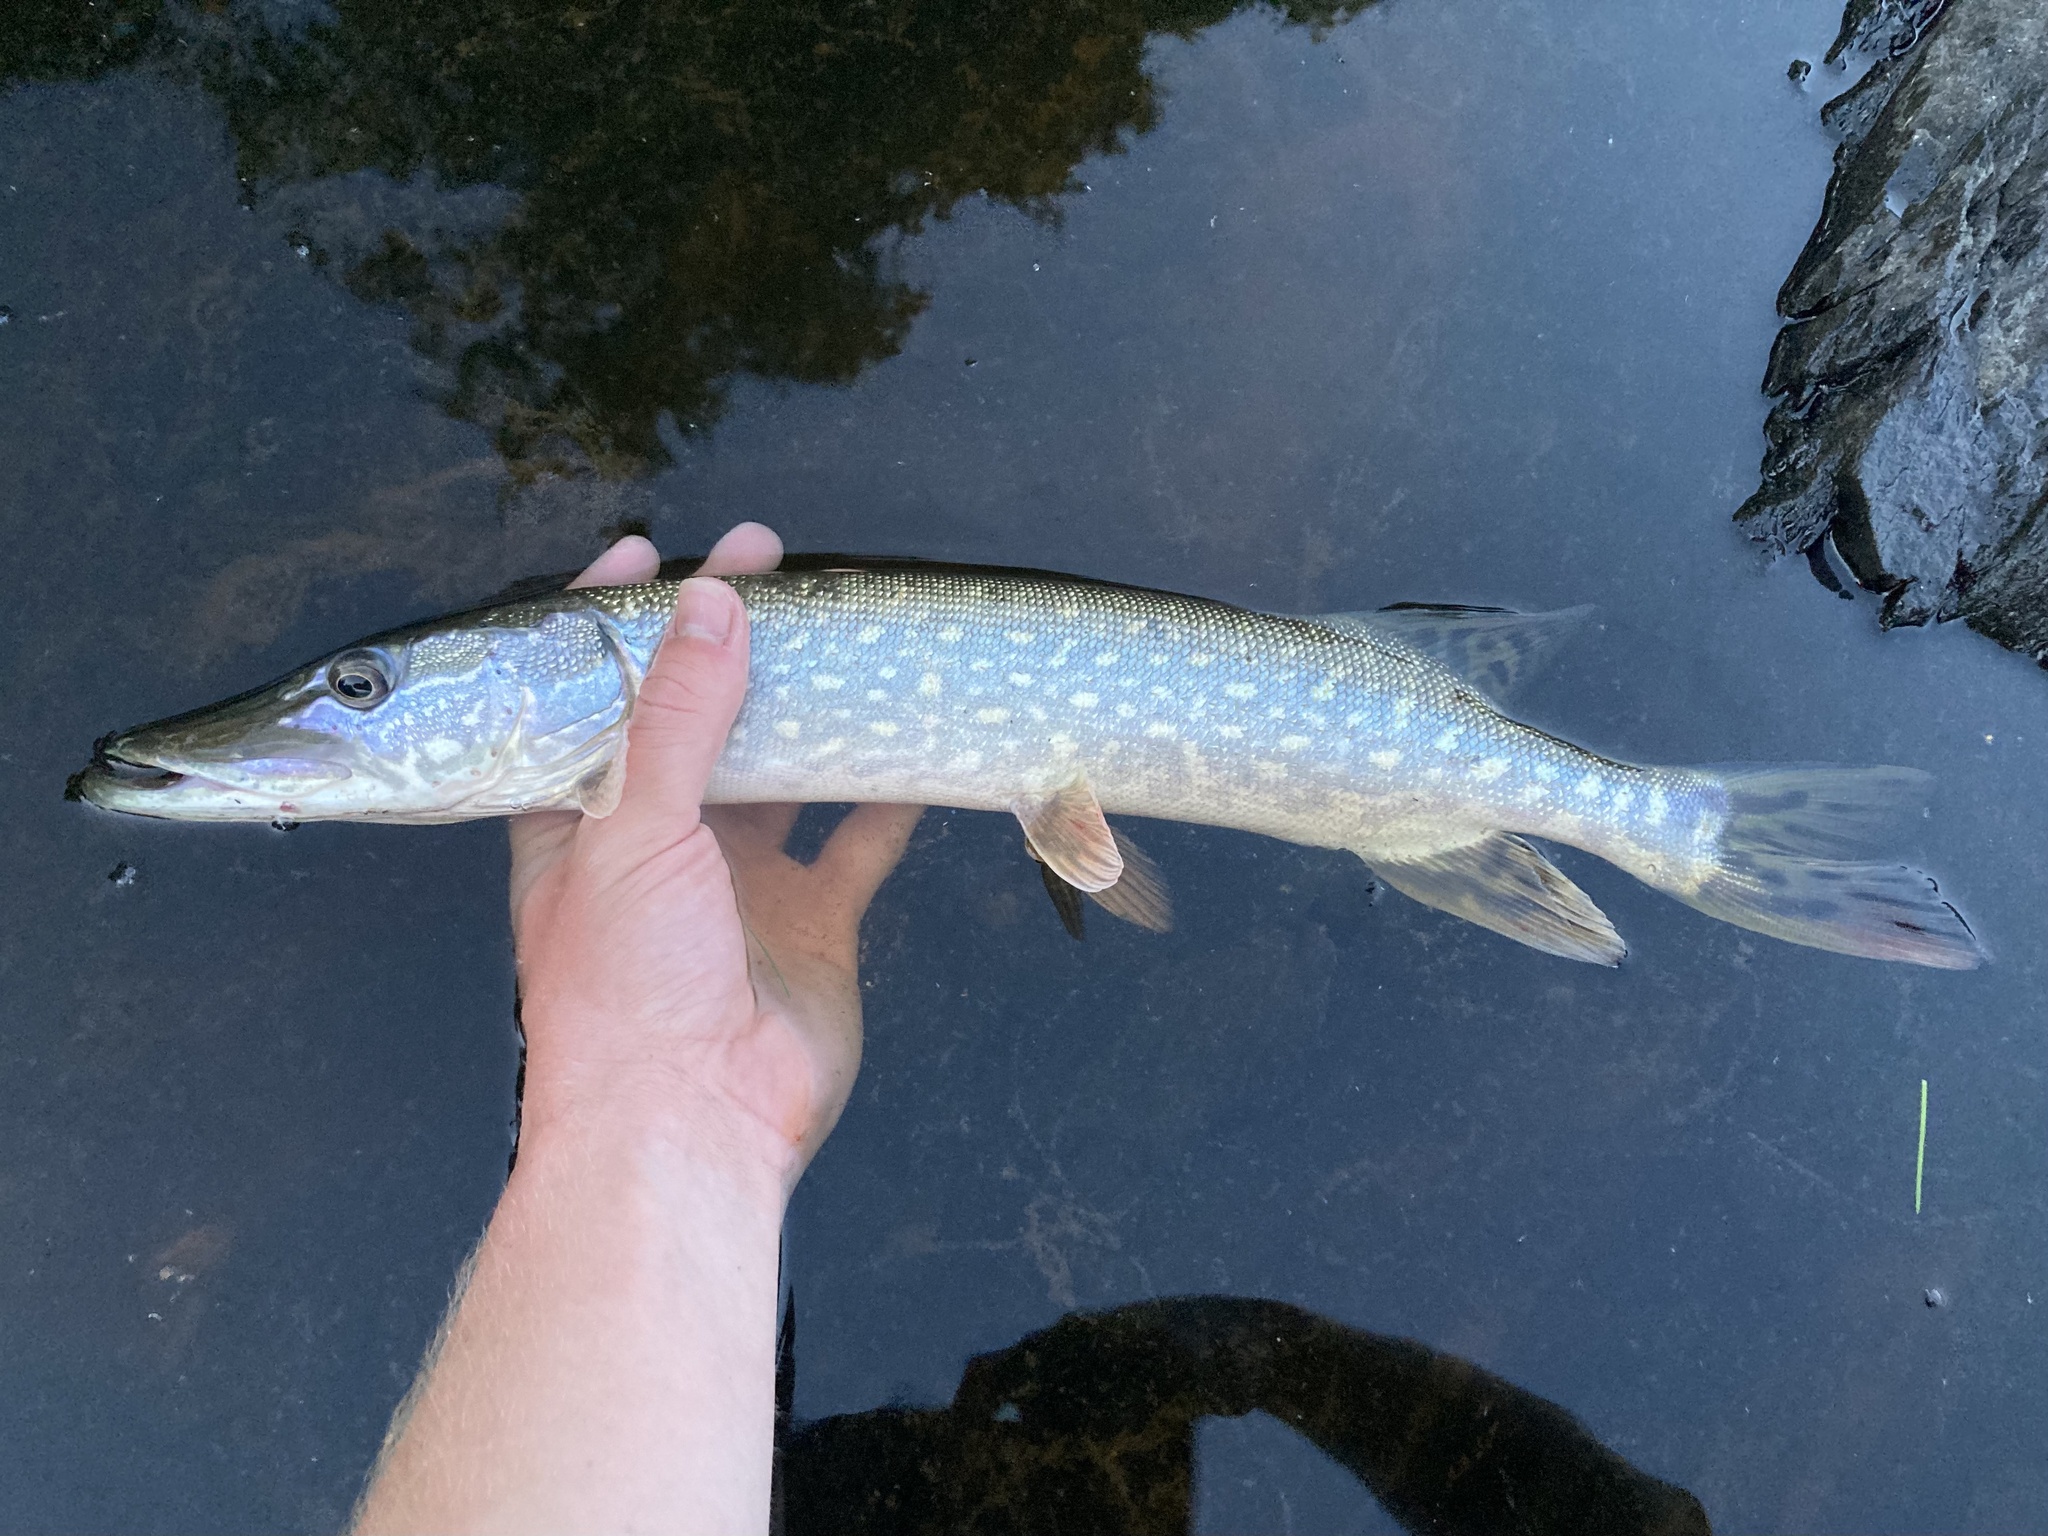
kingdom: Animalia
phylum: Chordata
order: Esociformes
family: Esocidae
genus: Esox
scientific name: Esox lucius
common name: Northern pike
